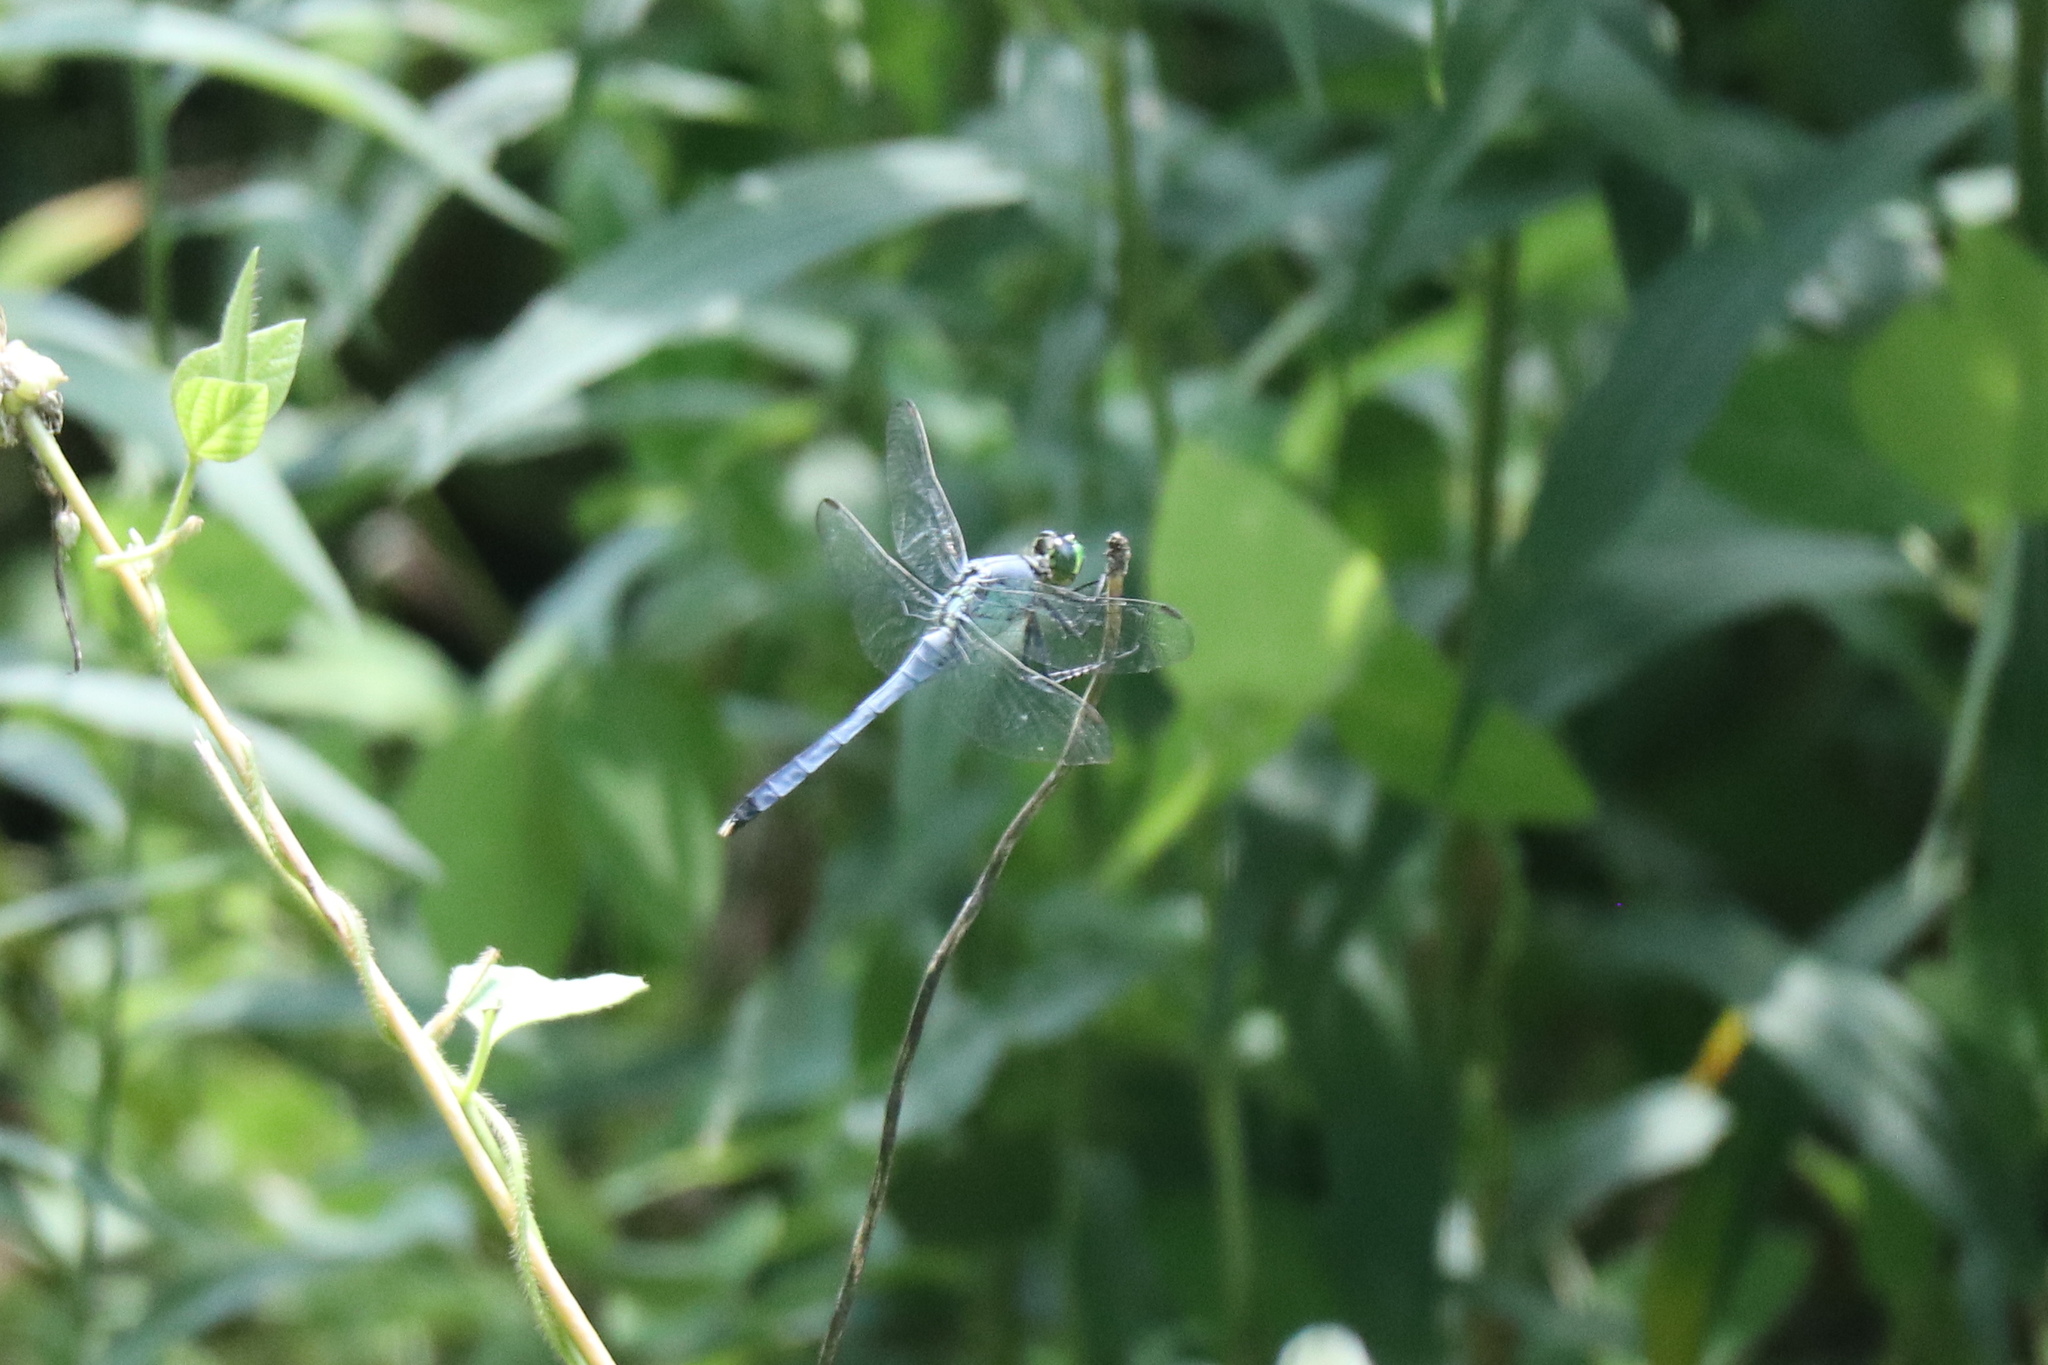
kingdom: Animalia
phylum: Arthropoda
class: Insecta
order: Odonata
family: Libellulidae
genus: Erythemis
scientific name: Erythemis simplicicollis
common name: Eastern pondhawk
